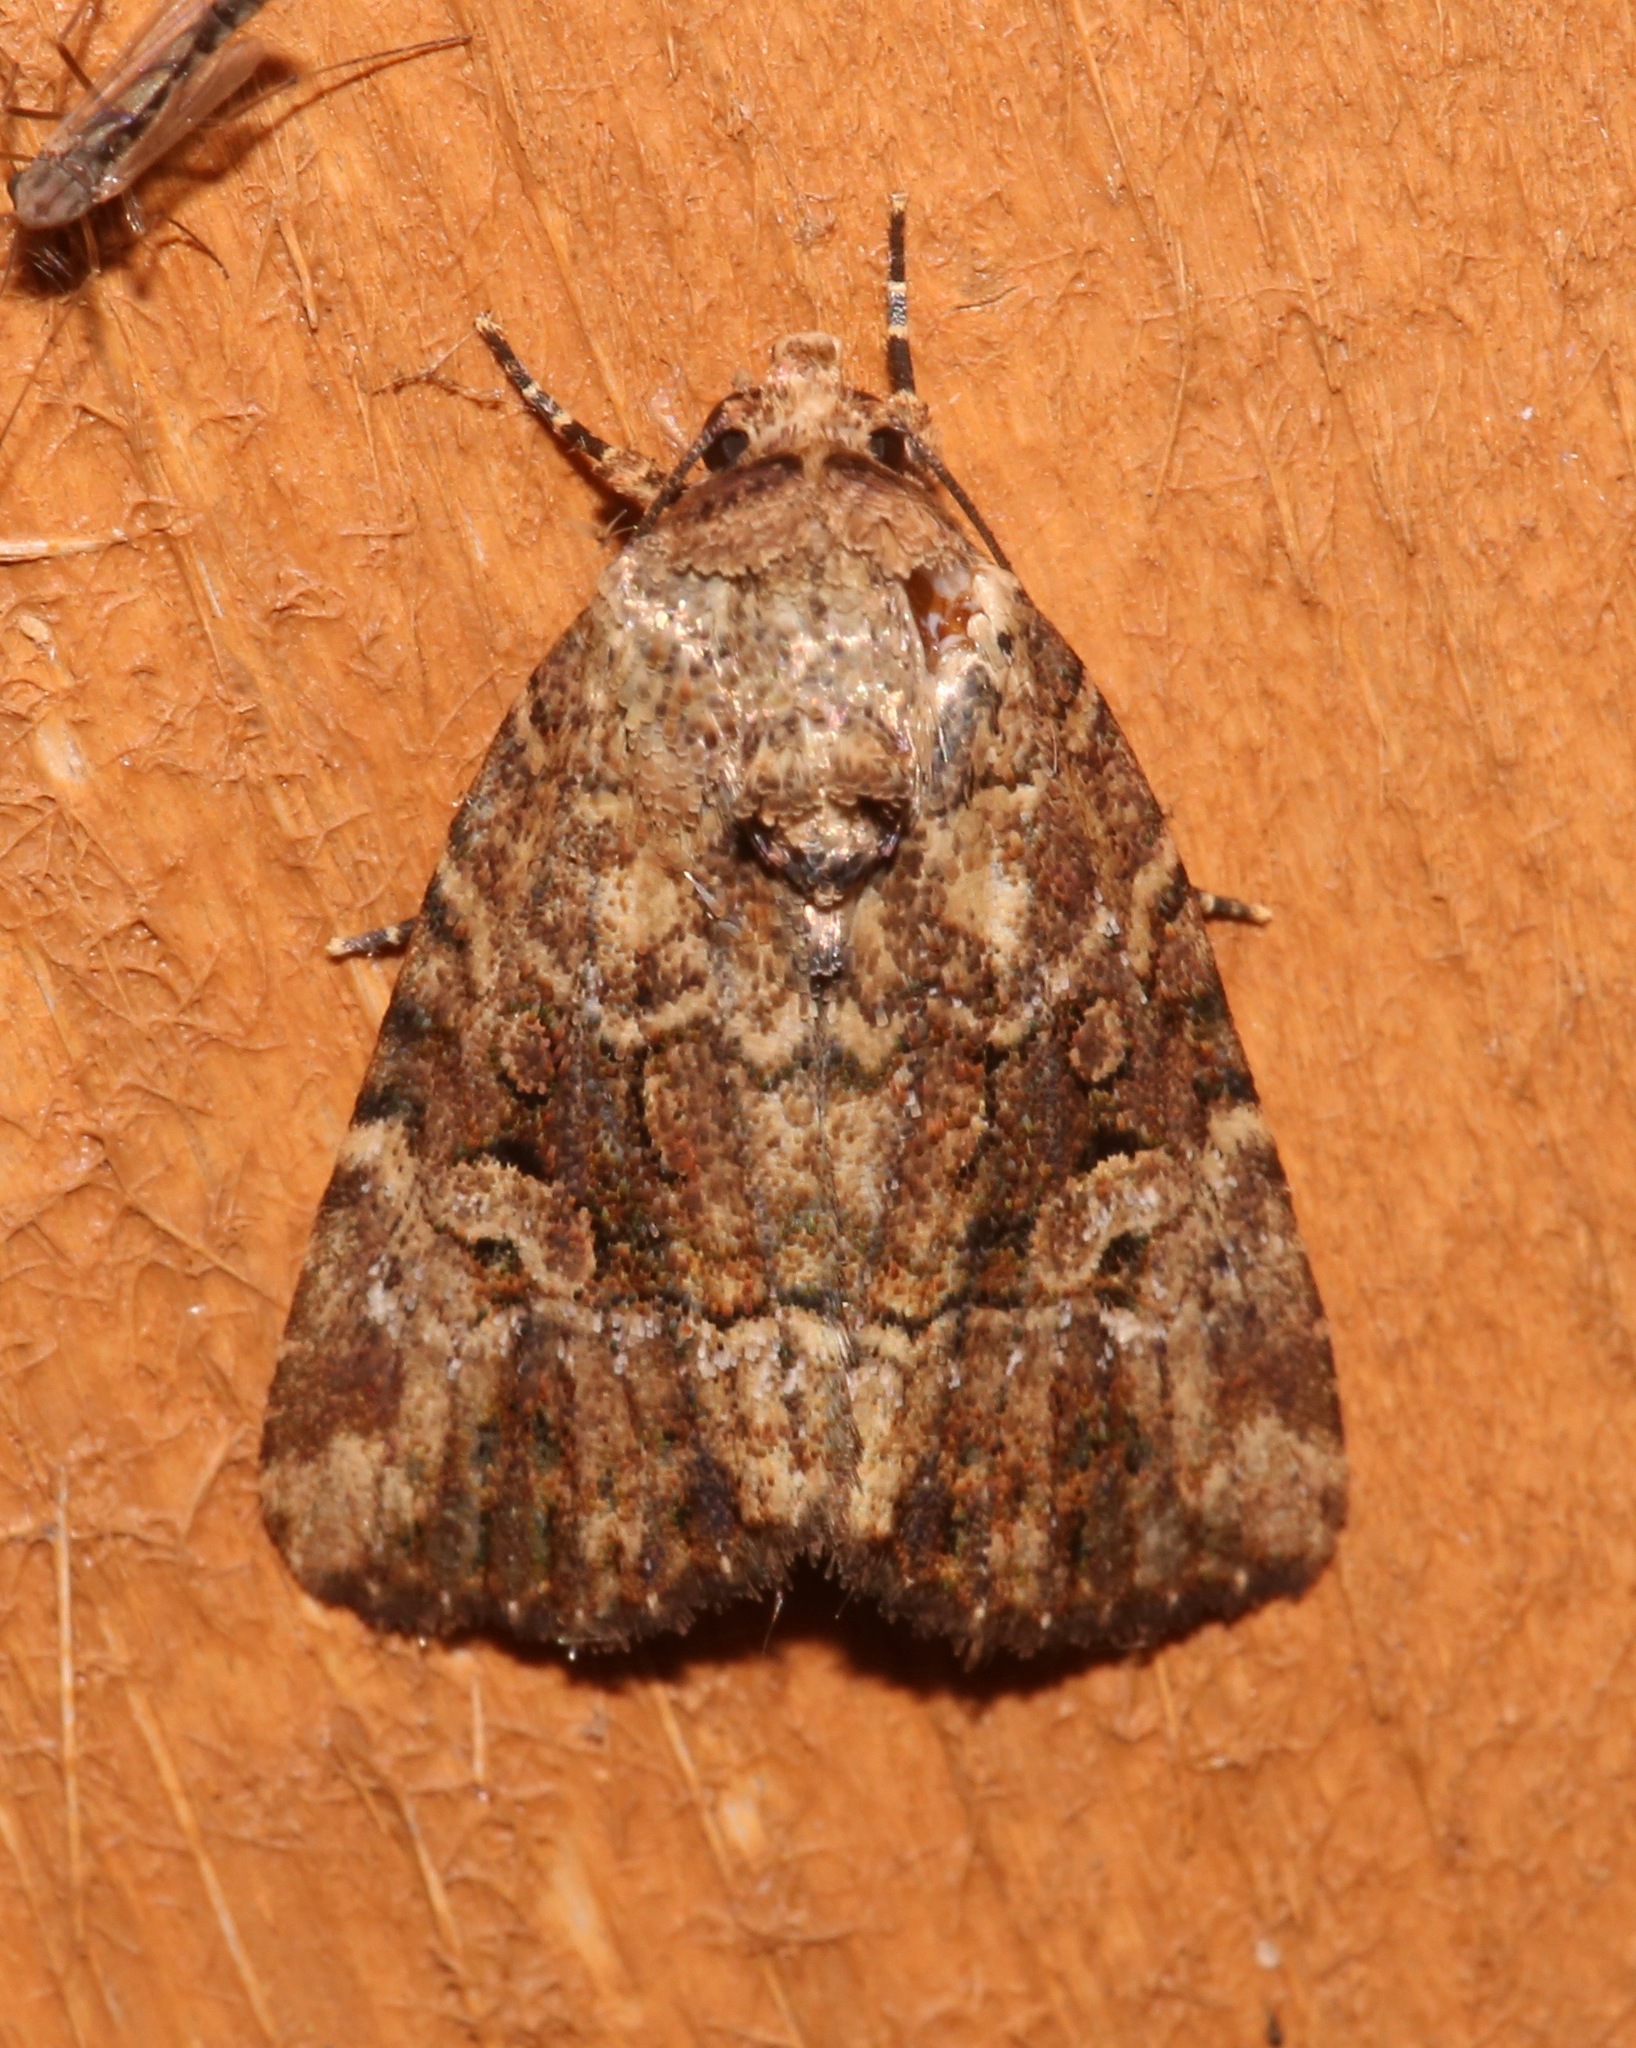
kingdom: Animalia
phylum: Arthropoda
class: Insecta
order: Lepidoptera
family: Noctuidae
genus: Elaphria
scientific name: Elaphria exesa
